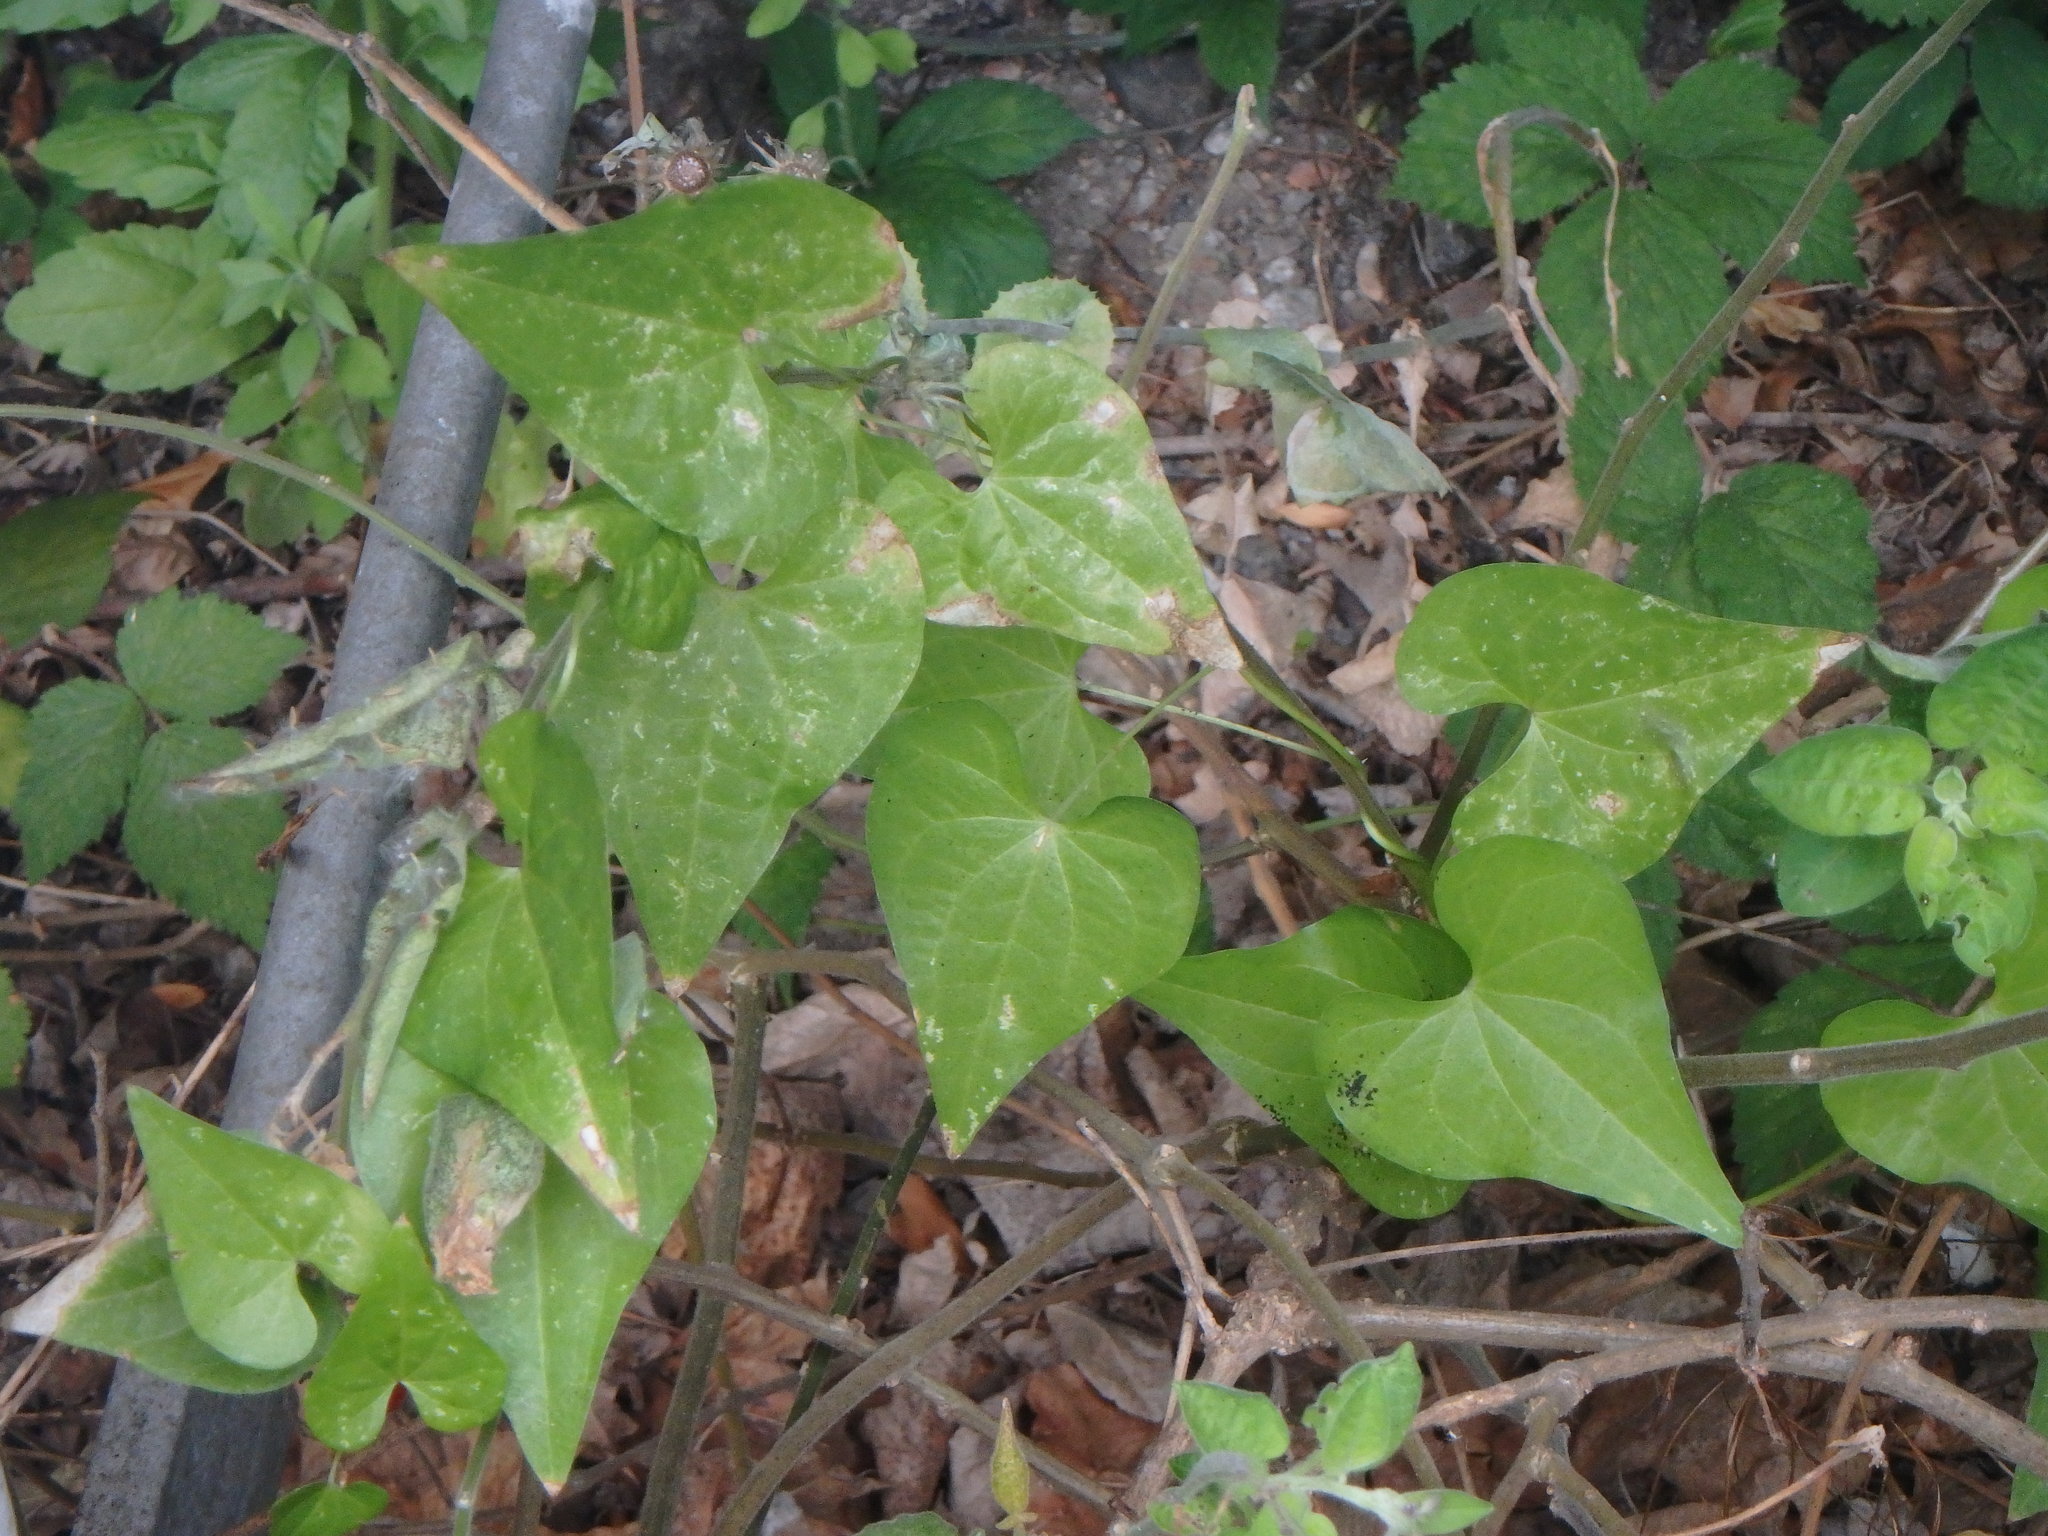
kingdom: Plantae
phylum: Tracheophyta
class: Liliopsida
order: Dioscoreales
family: Dioscoreaceae
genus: Dioscorea
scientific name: Dioscorea communis
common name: Black-bindweed
